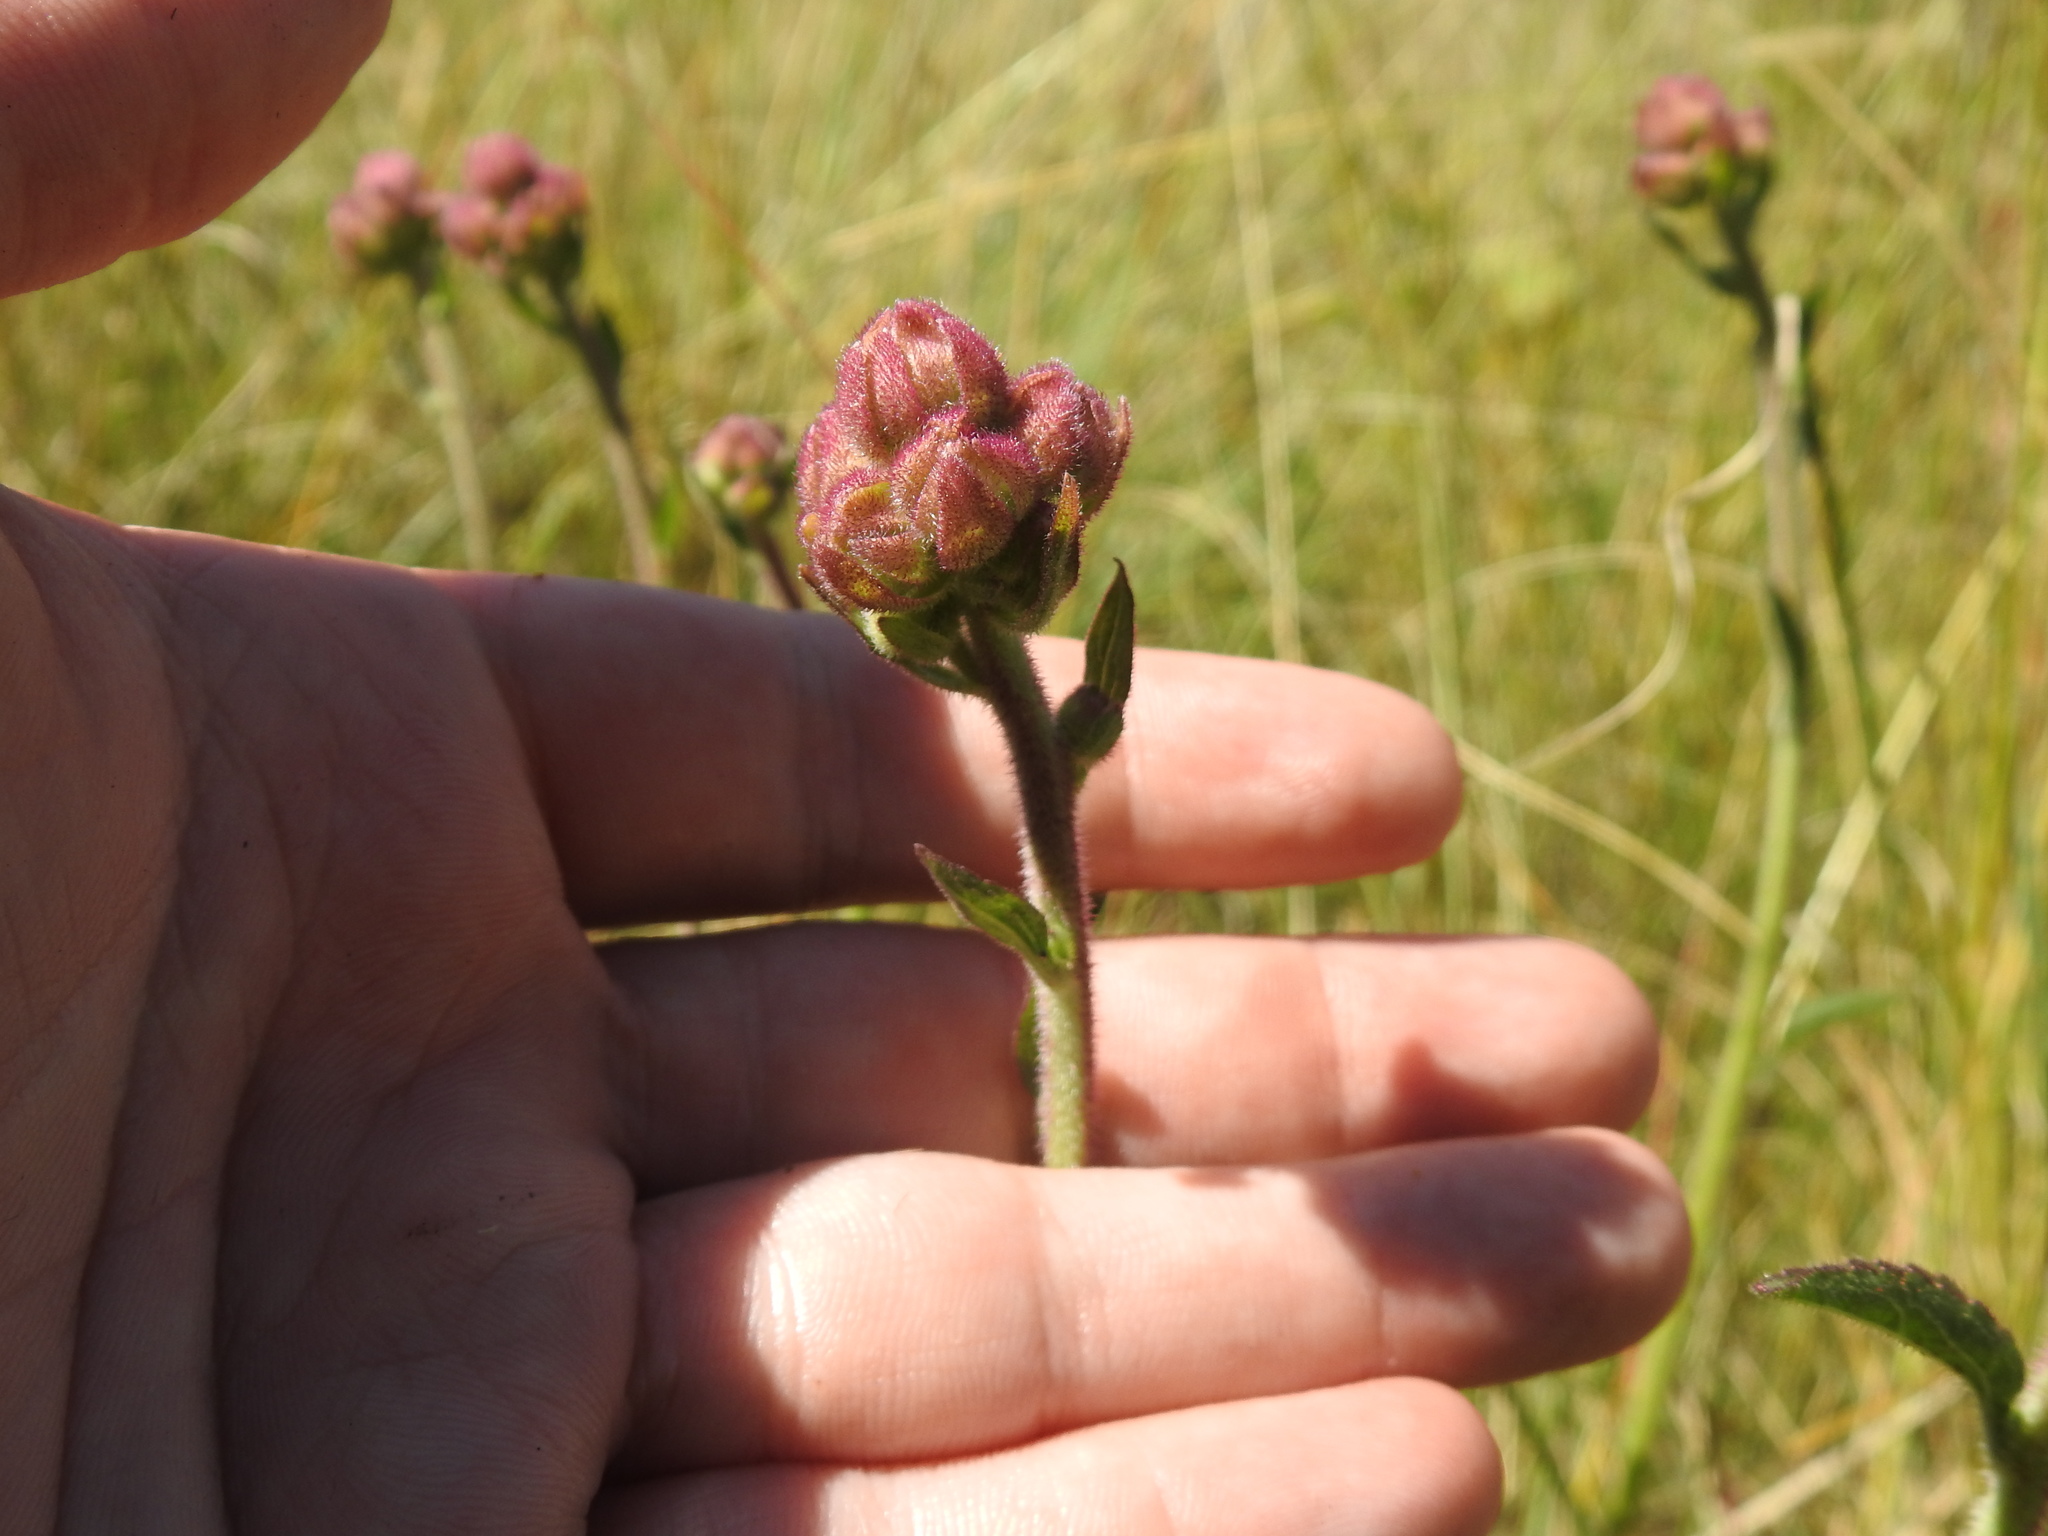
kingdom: Plantae
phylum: Tracheophyta
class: Magnoliopsida
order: Asterales
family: Asteraceae
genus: Campuloclinium
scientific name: Campuloclinium macrocephalum
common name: Pompomweed
